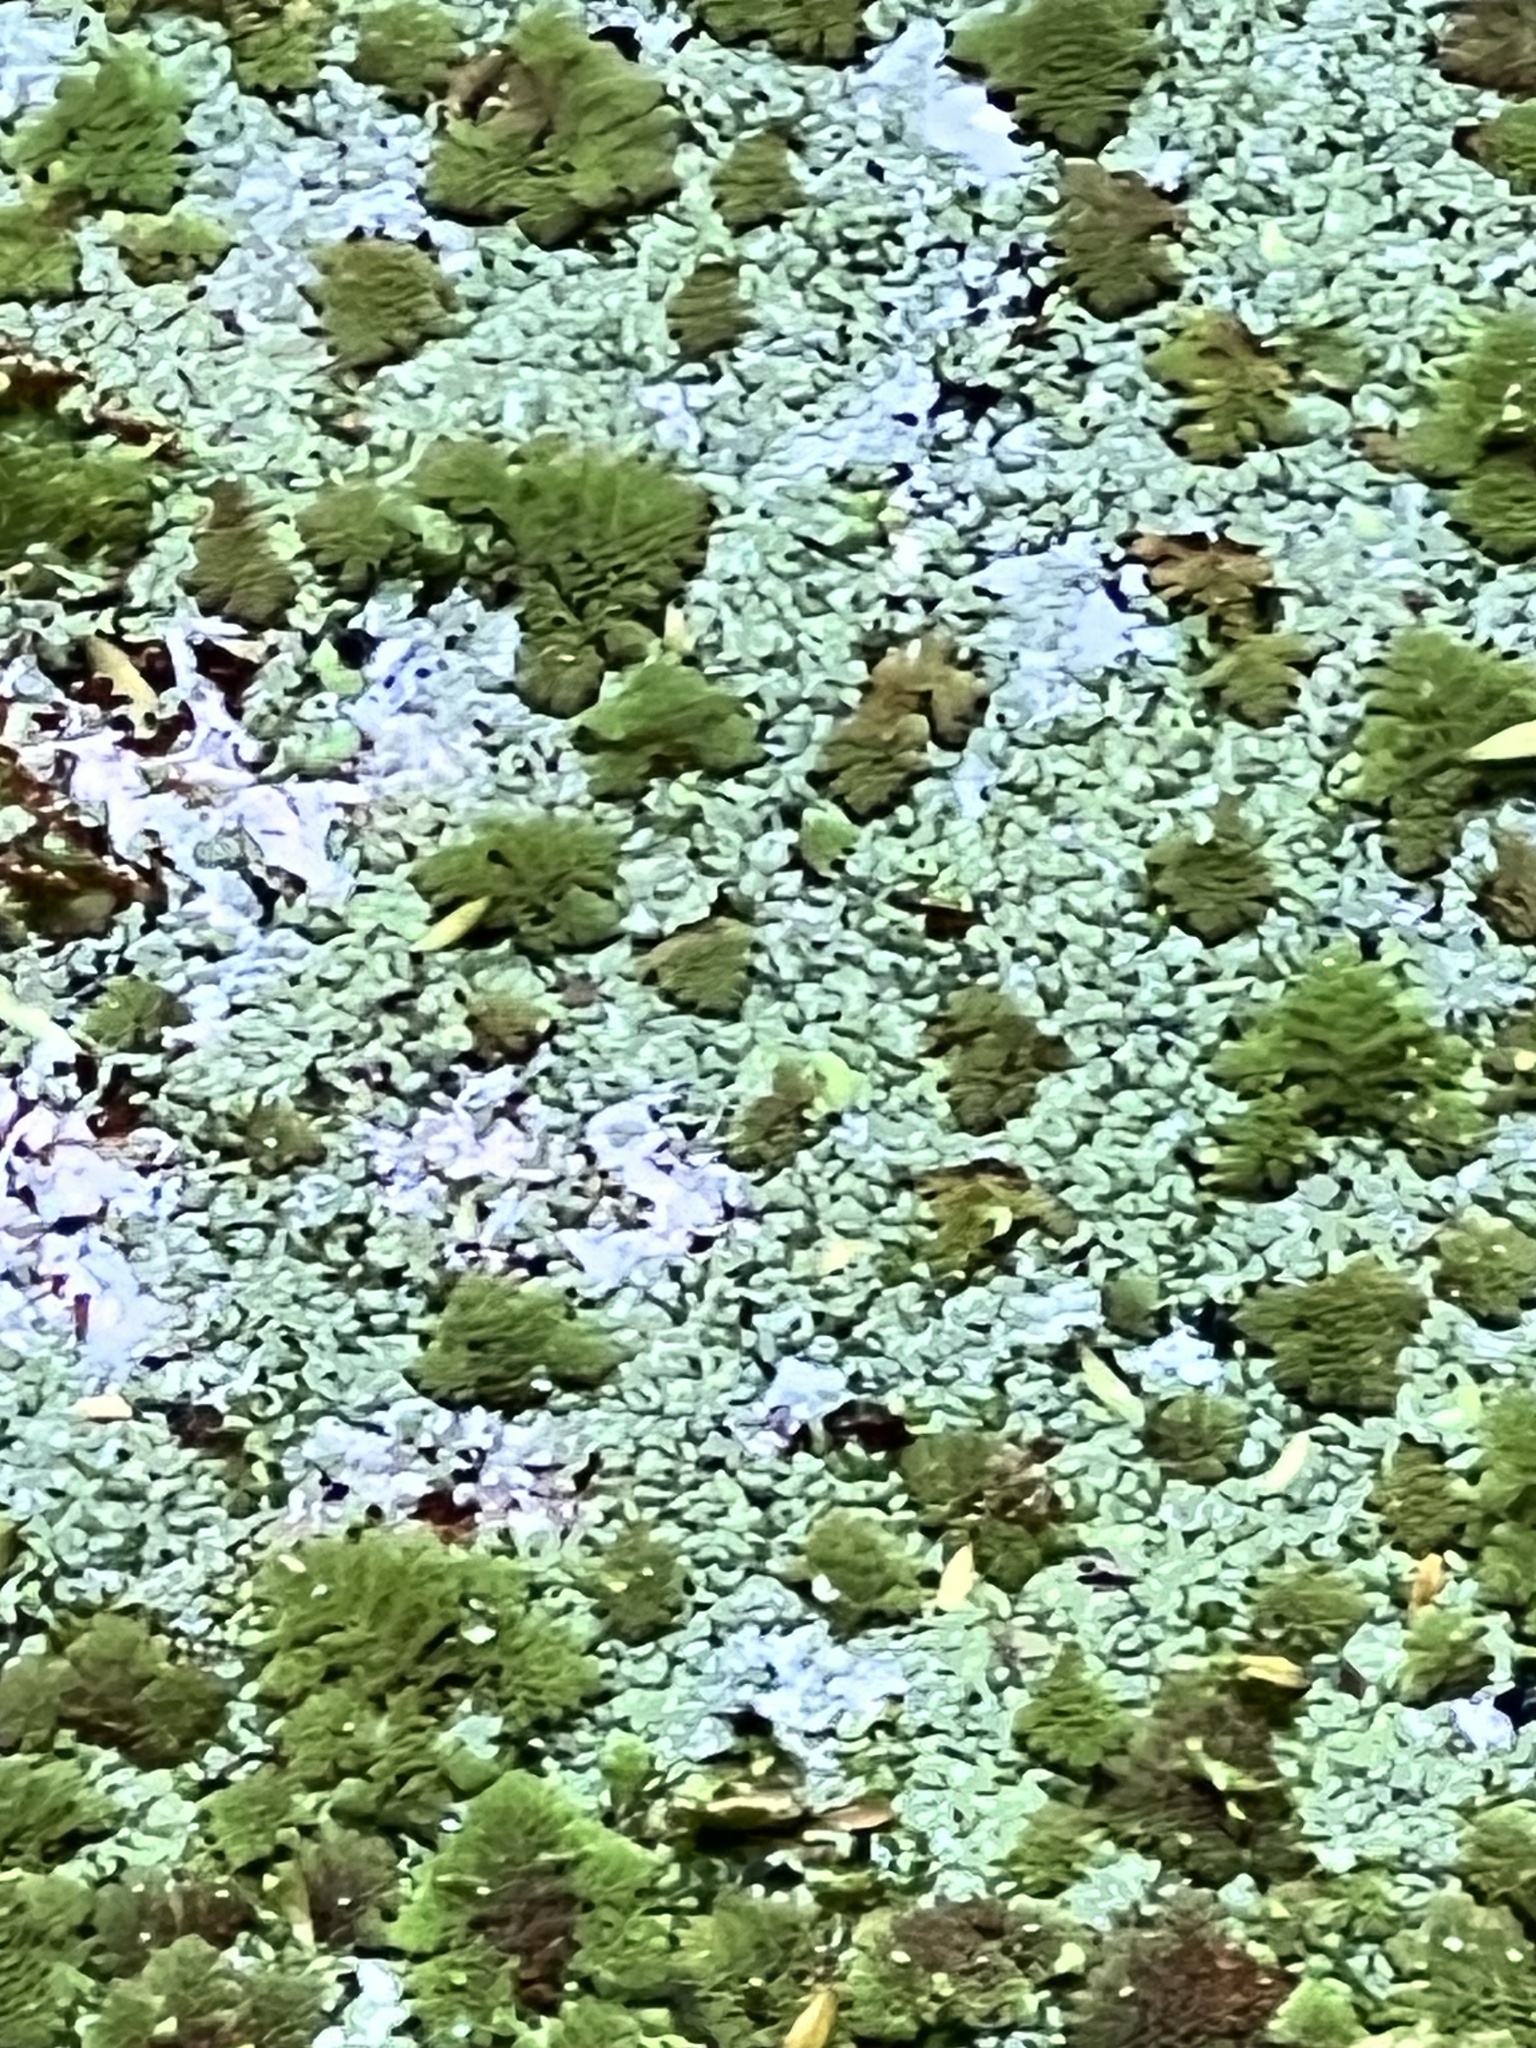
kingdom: Plantae
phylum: Tracheophyta
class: Polypodiopsida
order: Salviniales
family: Salviniaceae
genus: Azolla
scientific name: Azolla pinnata
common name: Ferny azolla
